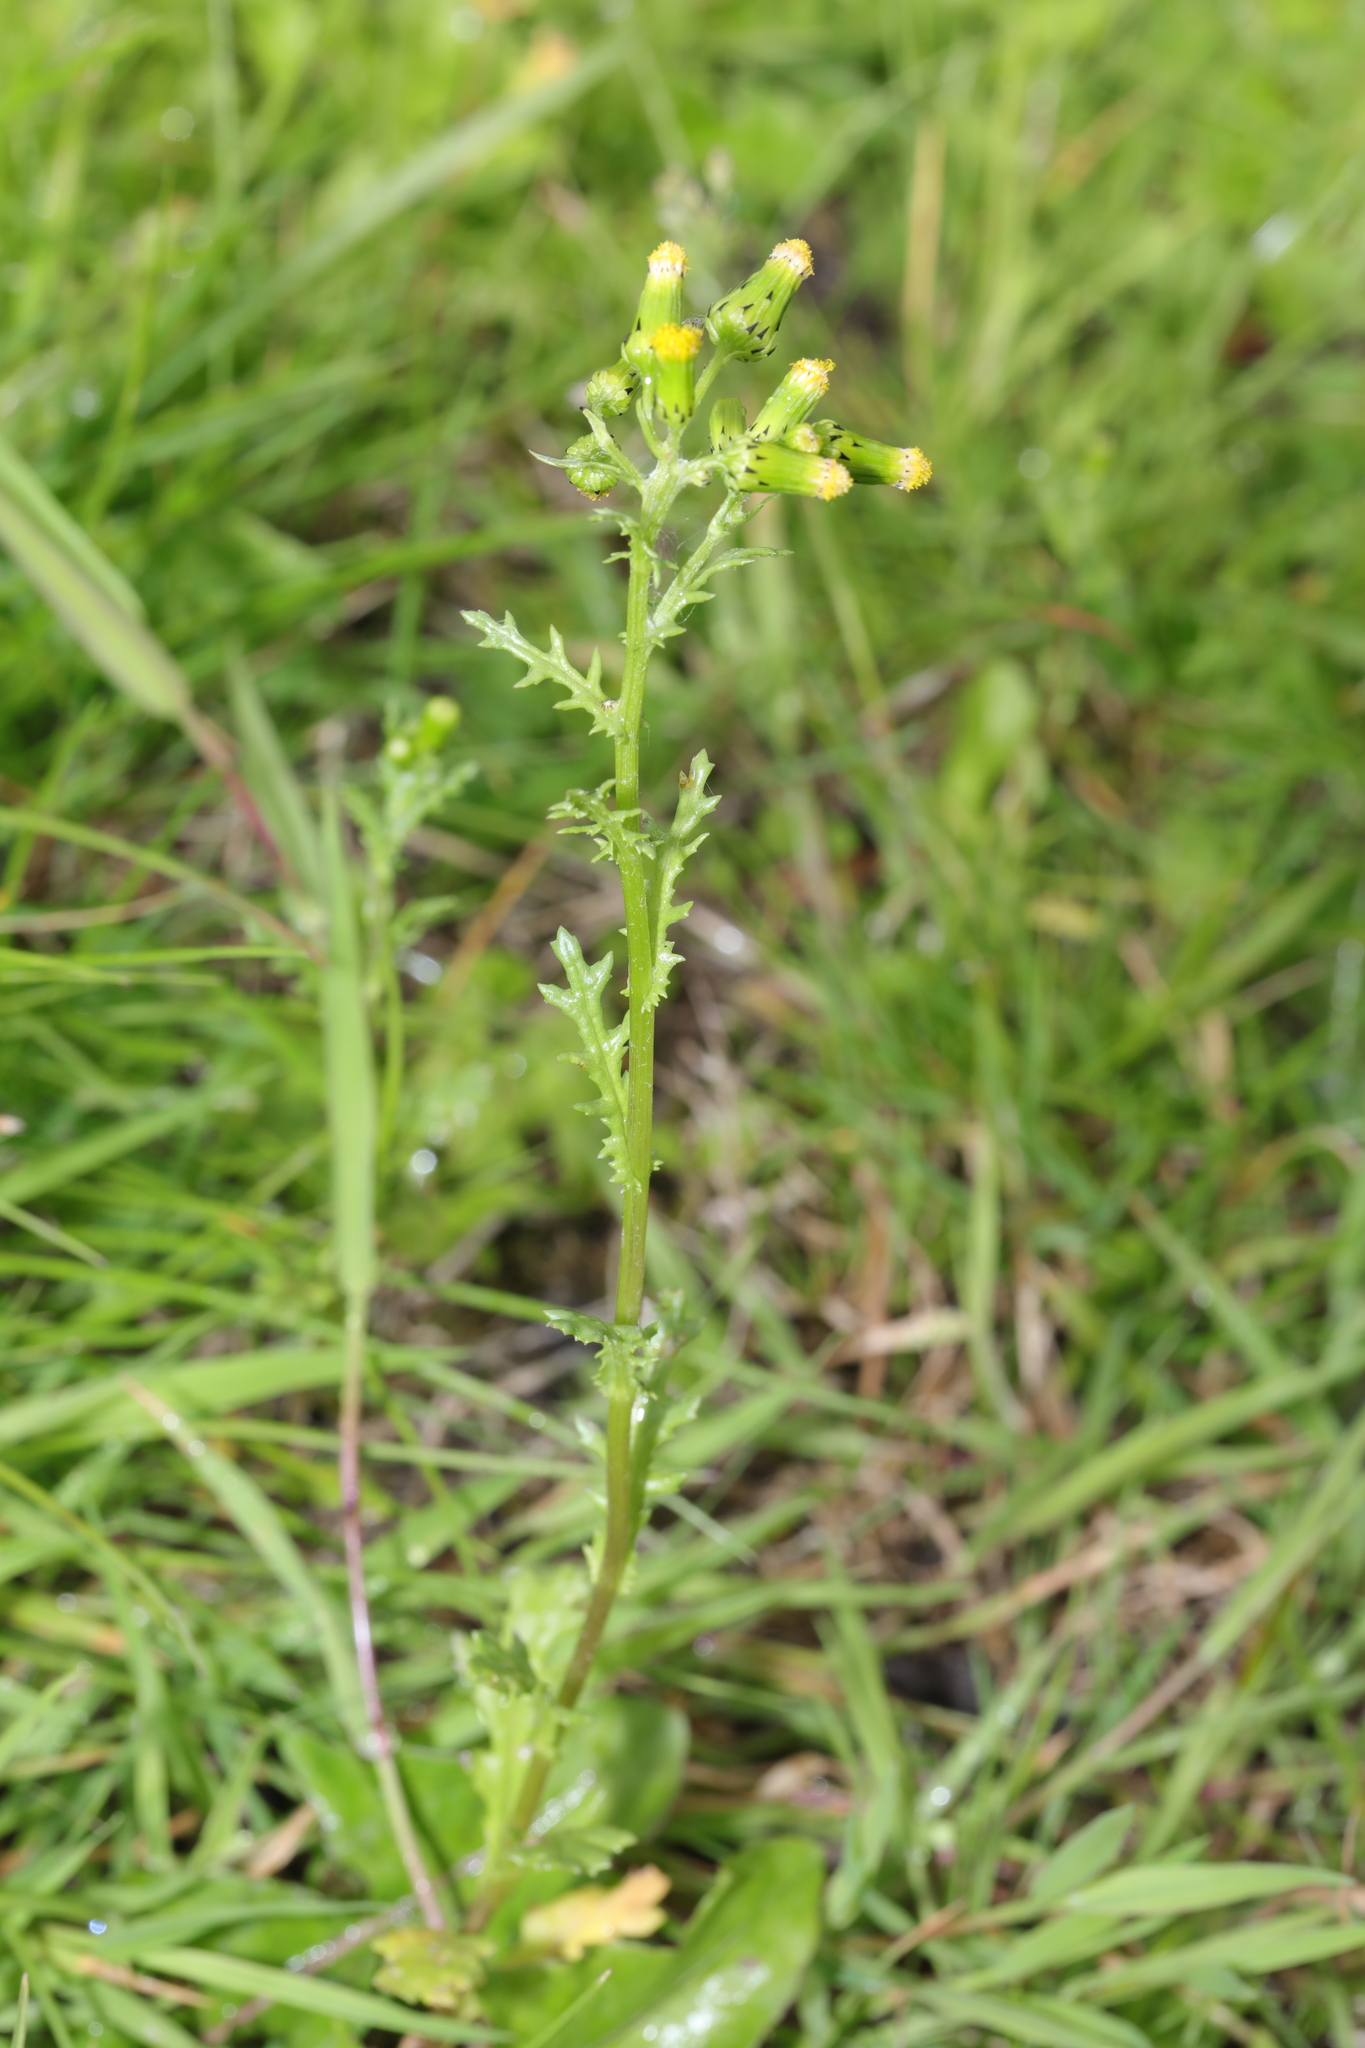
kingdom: Plantae
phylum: Tracheophyta
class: Magnoliopsida
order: Asterales
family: Asteraceae
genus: Senecio
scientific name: Senecio vulgaris
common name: Old-man-in-the-spring
